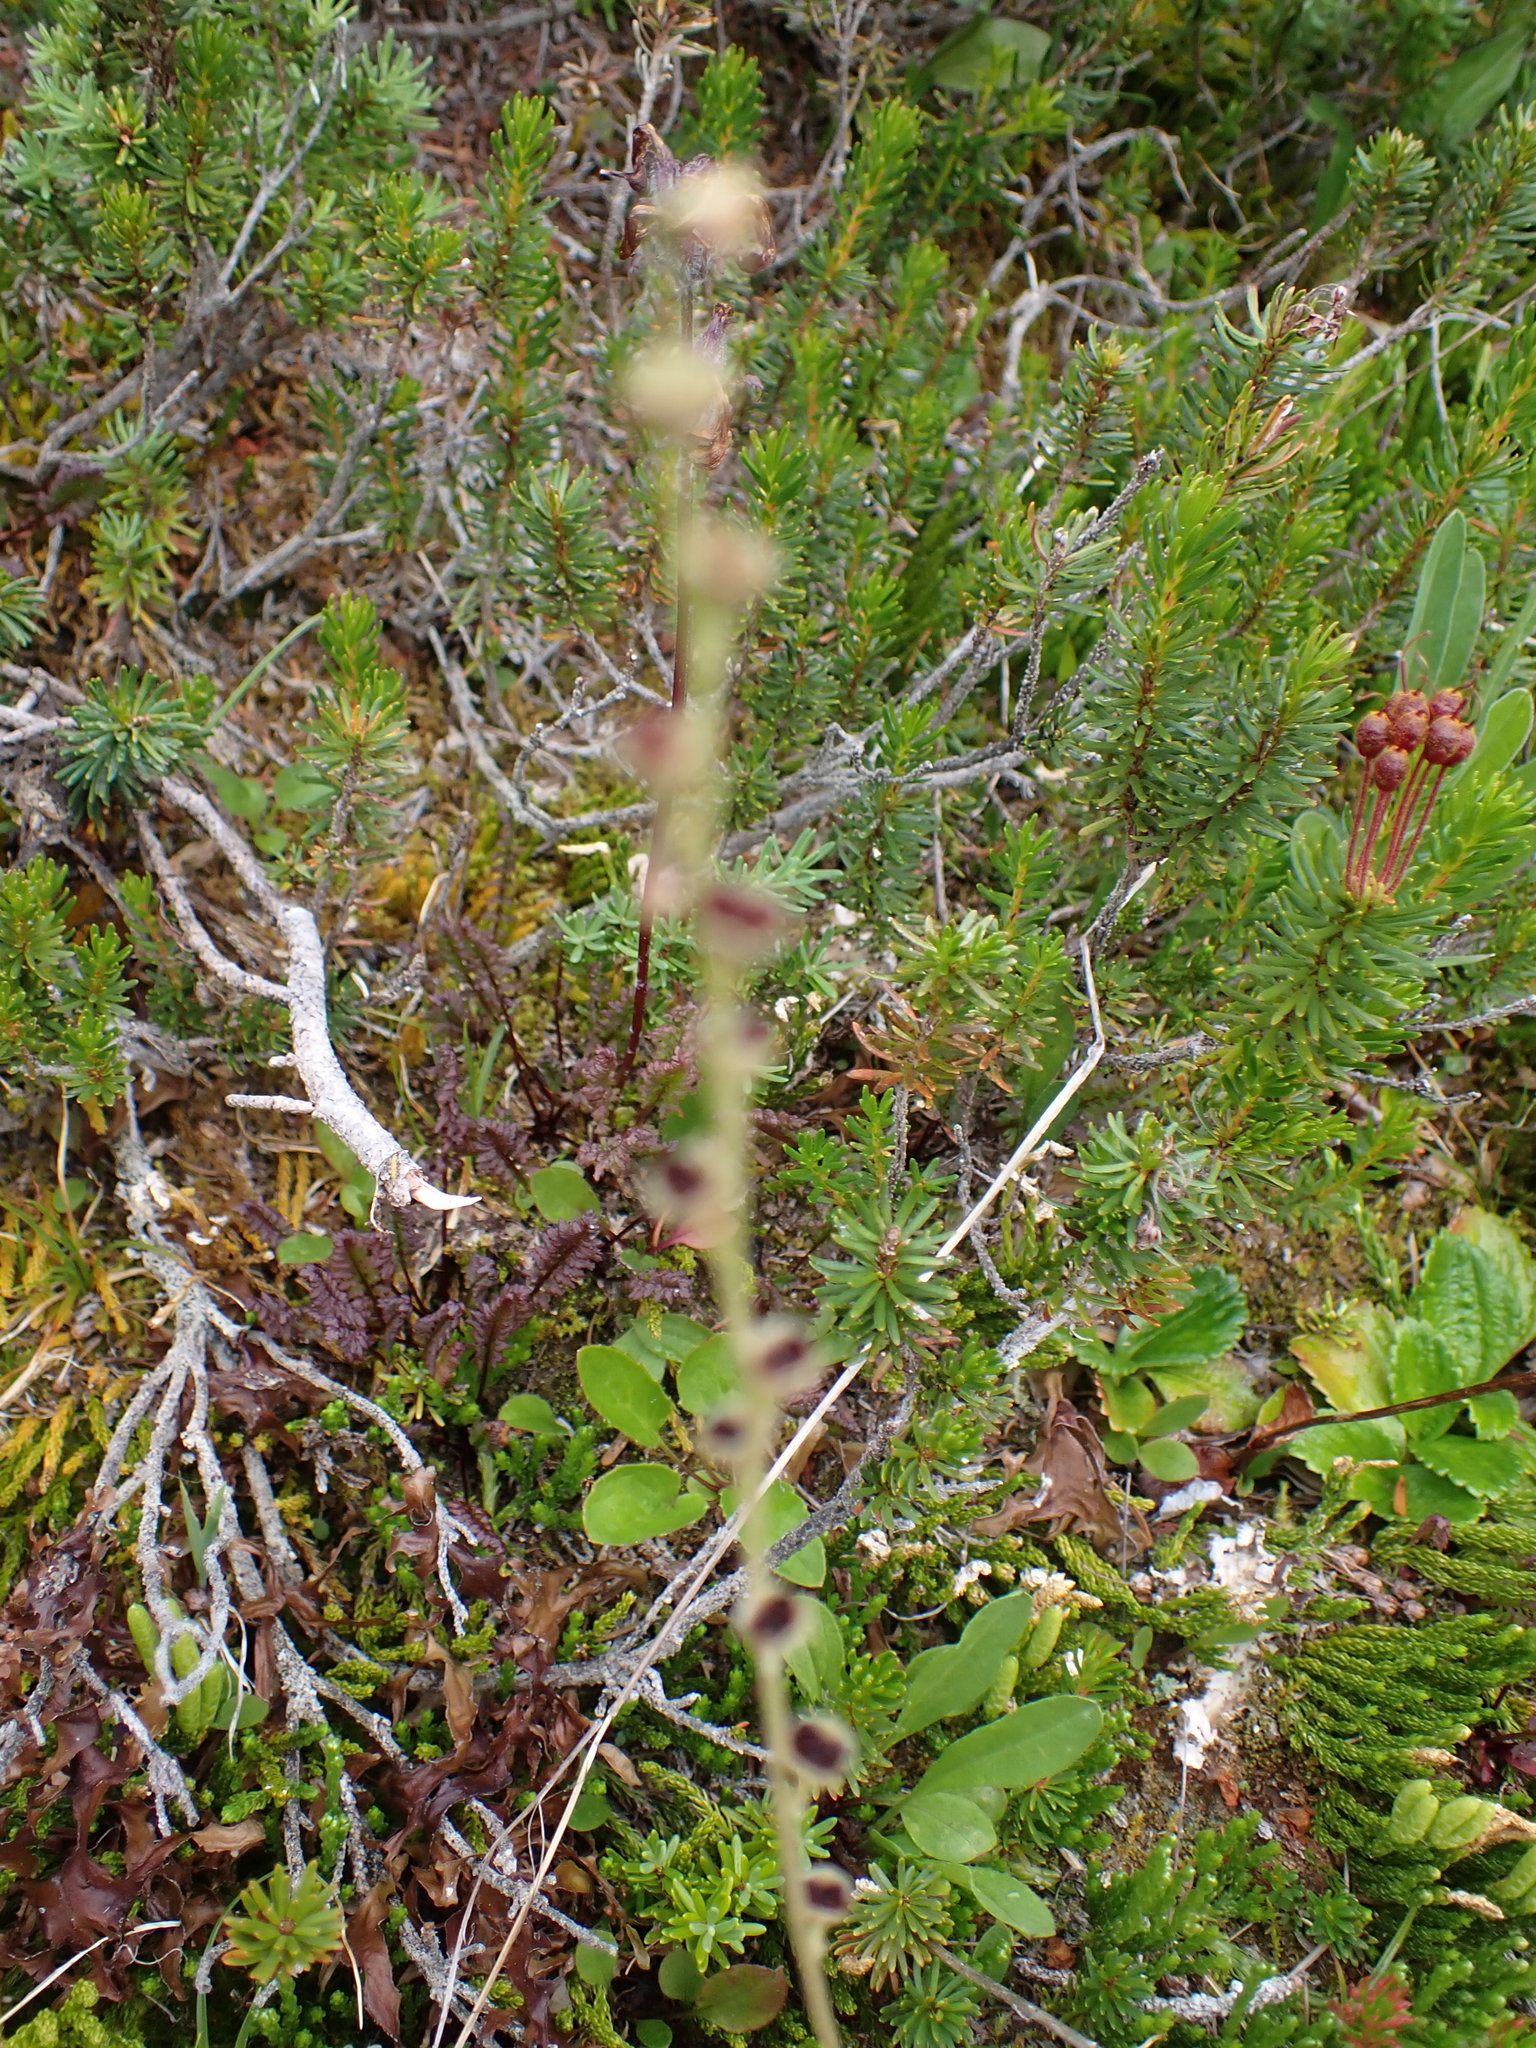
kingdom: Plantae
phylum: Tracheophyta
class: Magnoliopsida
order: Saxifragales
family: Saxifragaceae
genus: Pectiantia
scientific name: Pectiantia pentandra
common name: Alpine bishop's-cap
